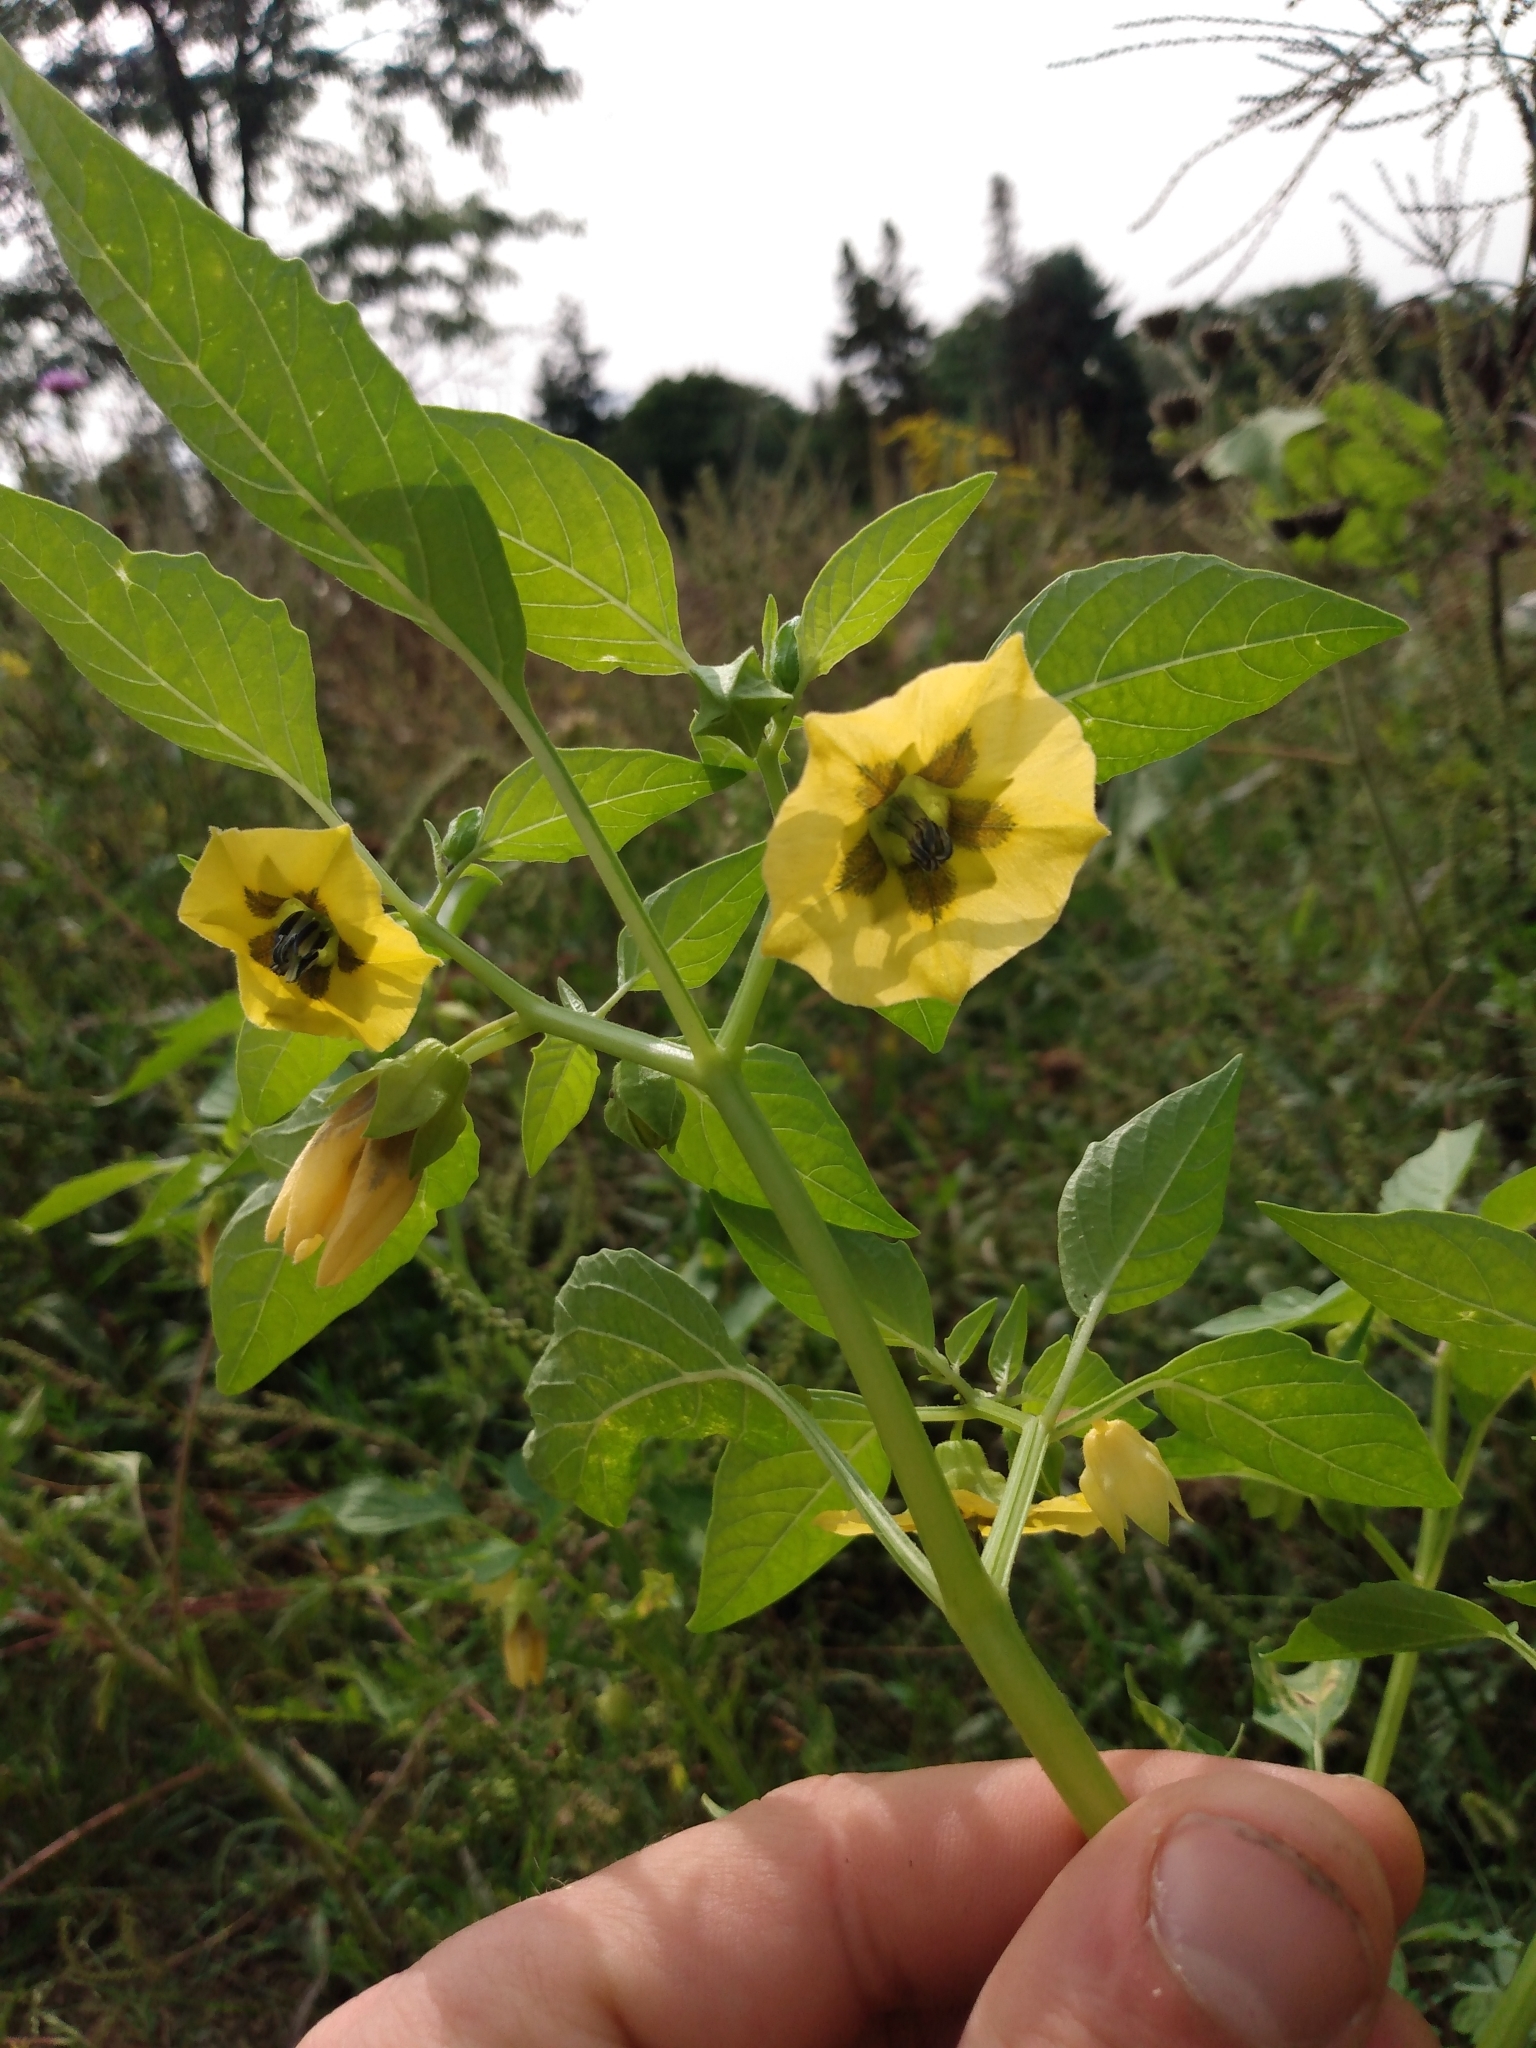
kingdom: Plantae
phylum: Tracheophyta
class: Magnoliopsida
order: Solanales
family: Solanaceae
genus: Physalis
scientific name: Physalis philadelphica
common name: Husk-tomato
